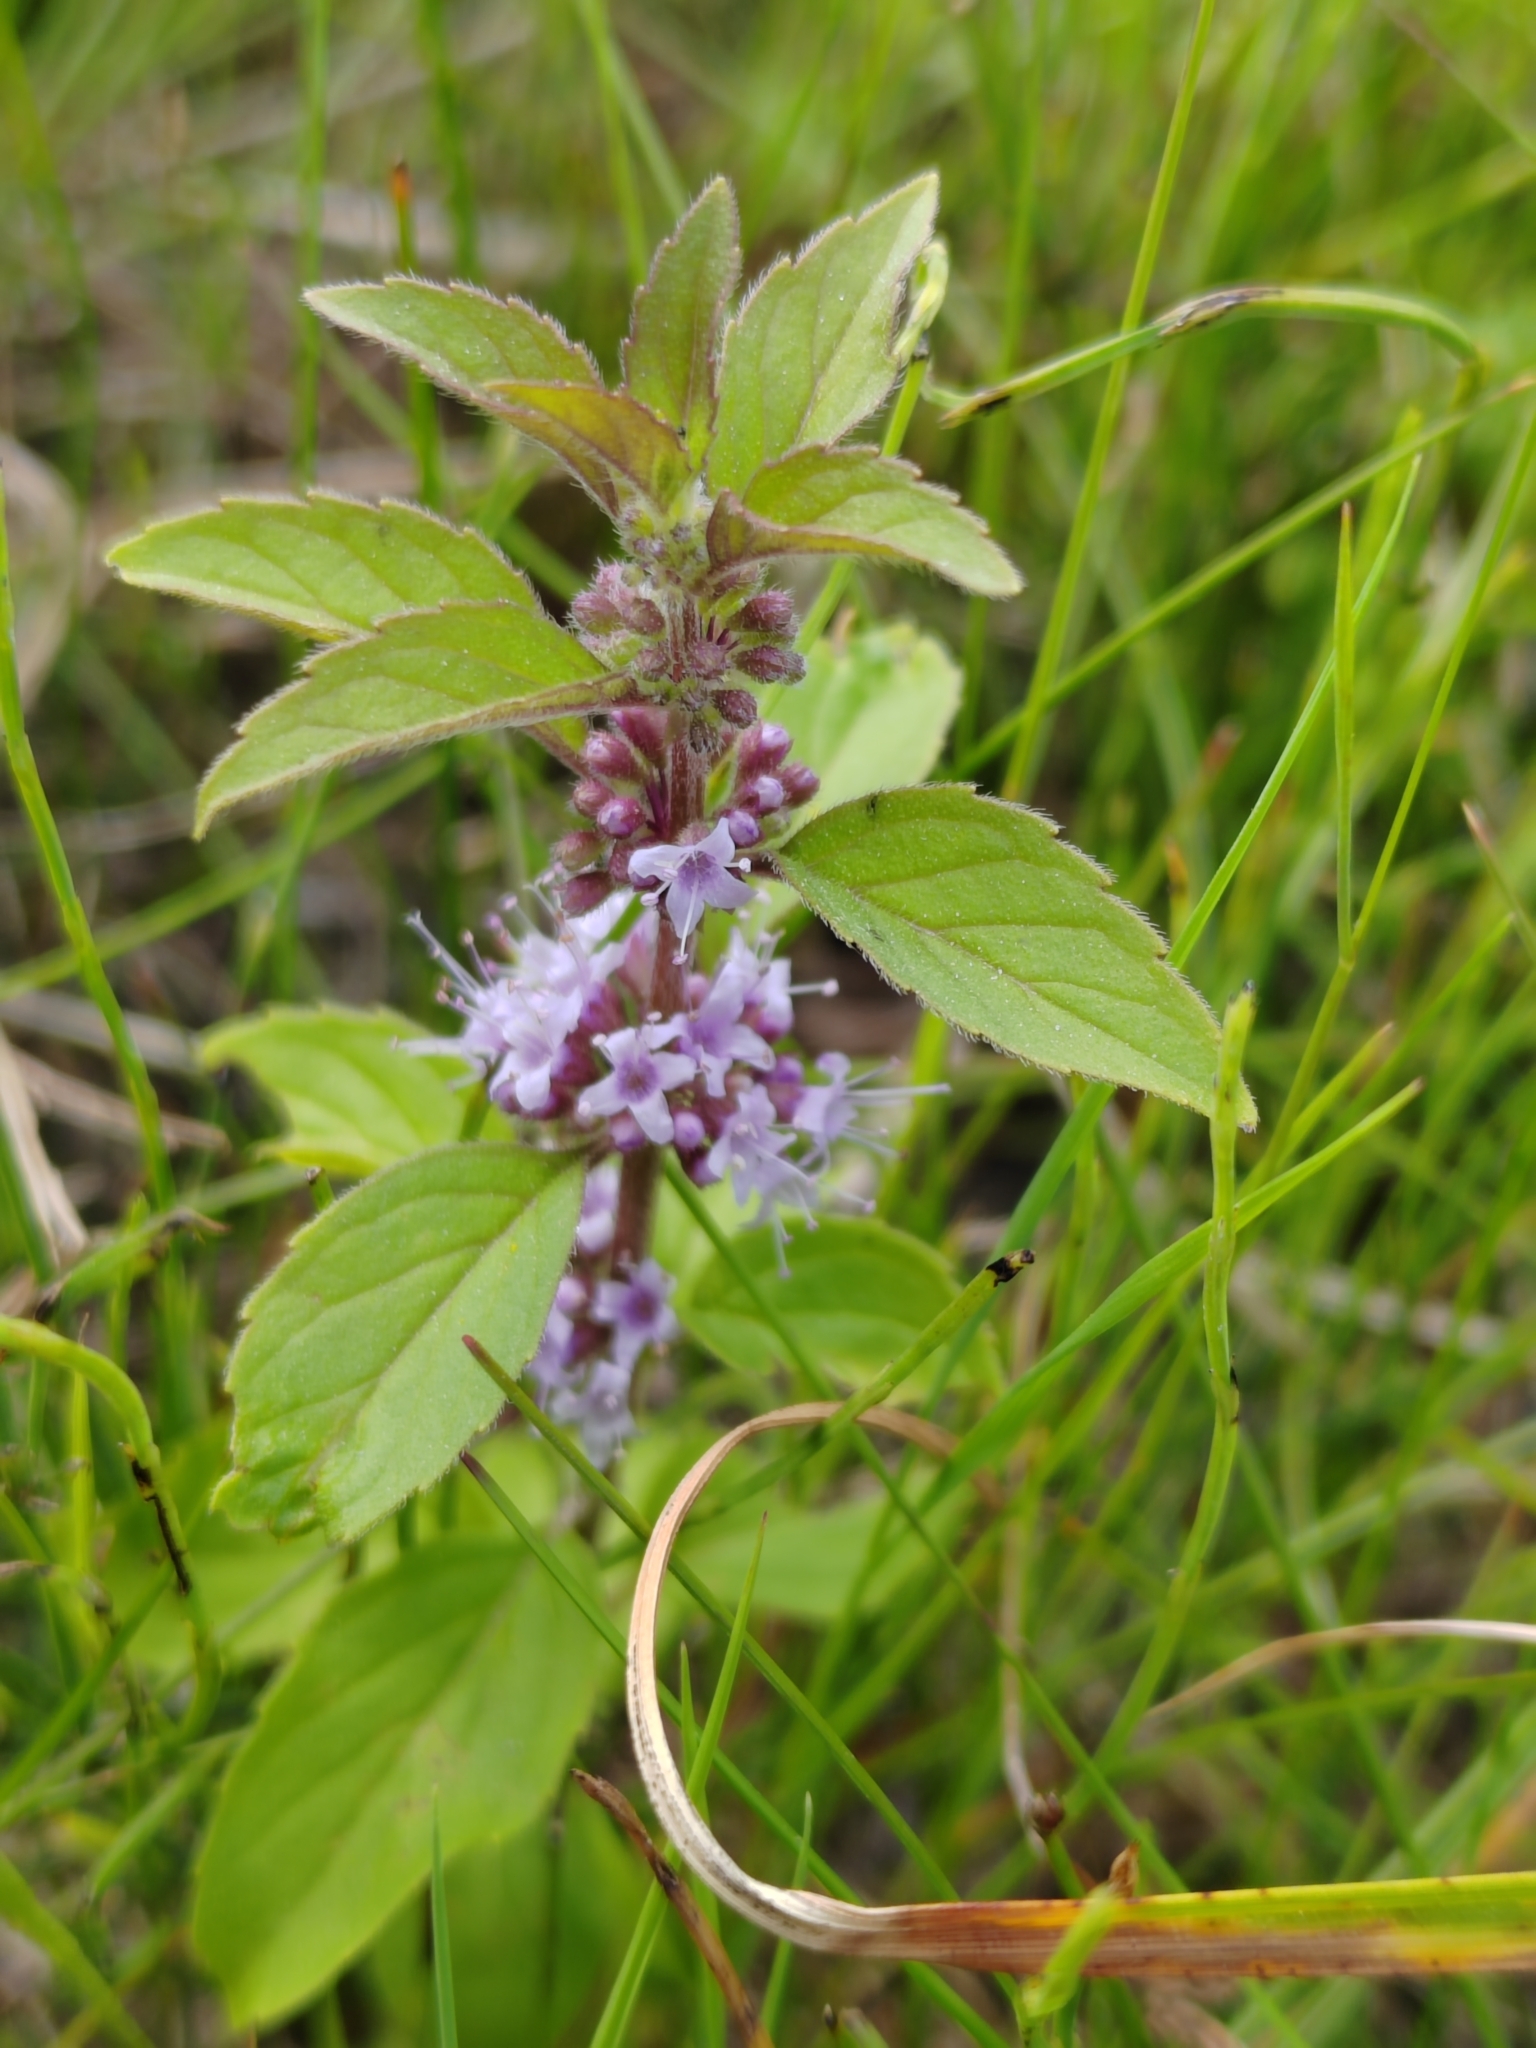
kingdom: Plantae
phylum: Tracheophyta
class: Magnoliopsida
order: Lamiales
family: Lamiaceae
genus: Mentha
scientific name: Mentha arvensis
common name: Corn mint
